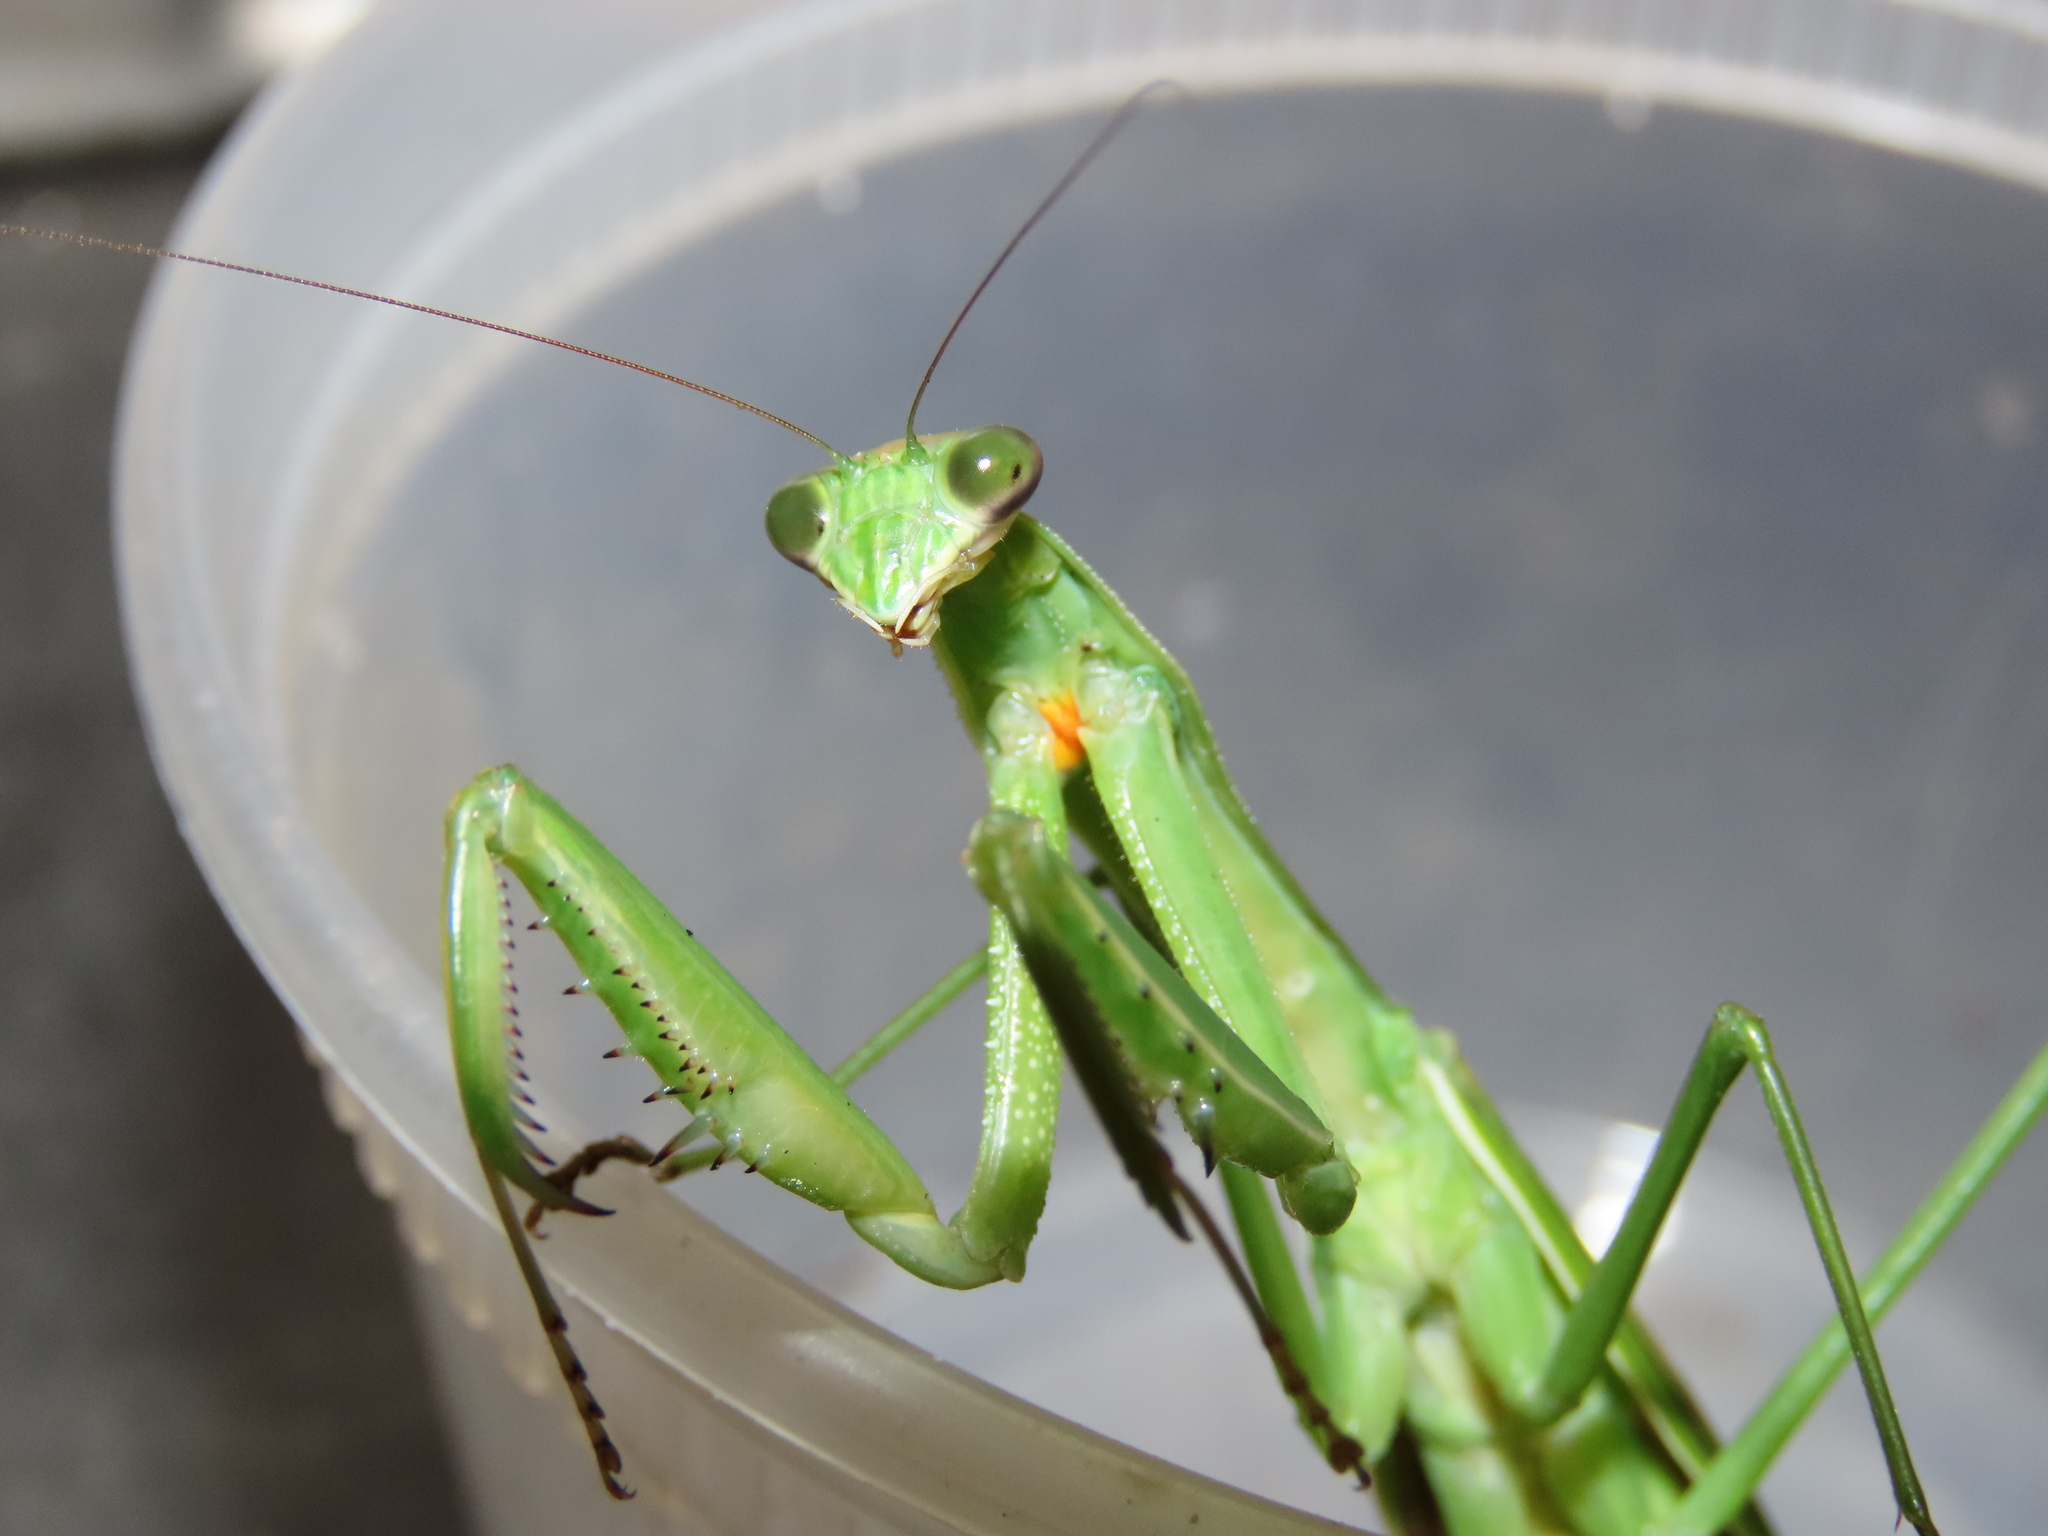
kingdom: Animalia
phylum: Arthropoda
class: Insecta
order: Mantodea
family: Mantidae
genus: Tenodera
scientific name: Tenodera angustipennis
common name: Asian mantis
